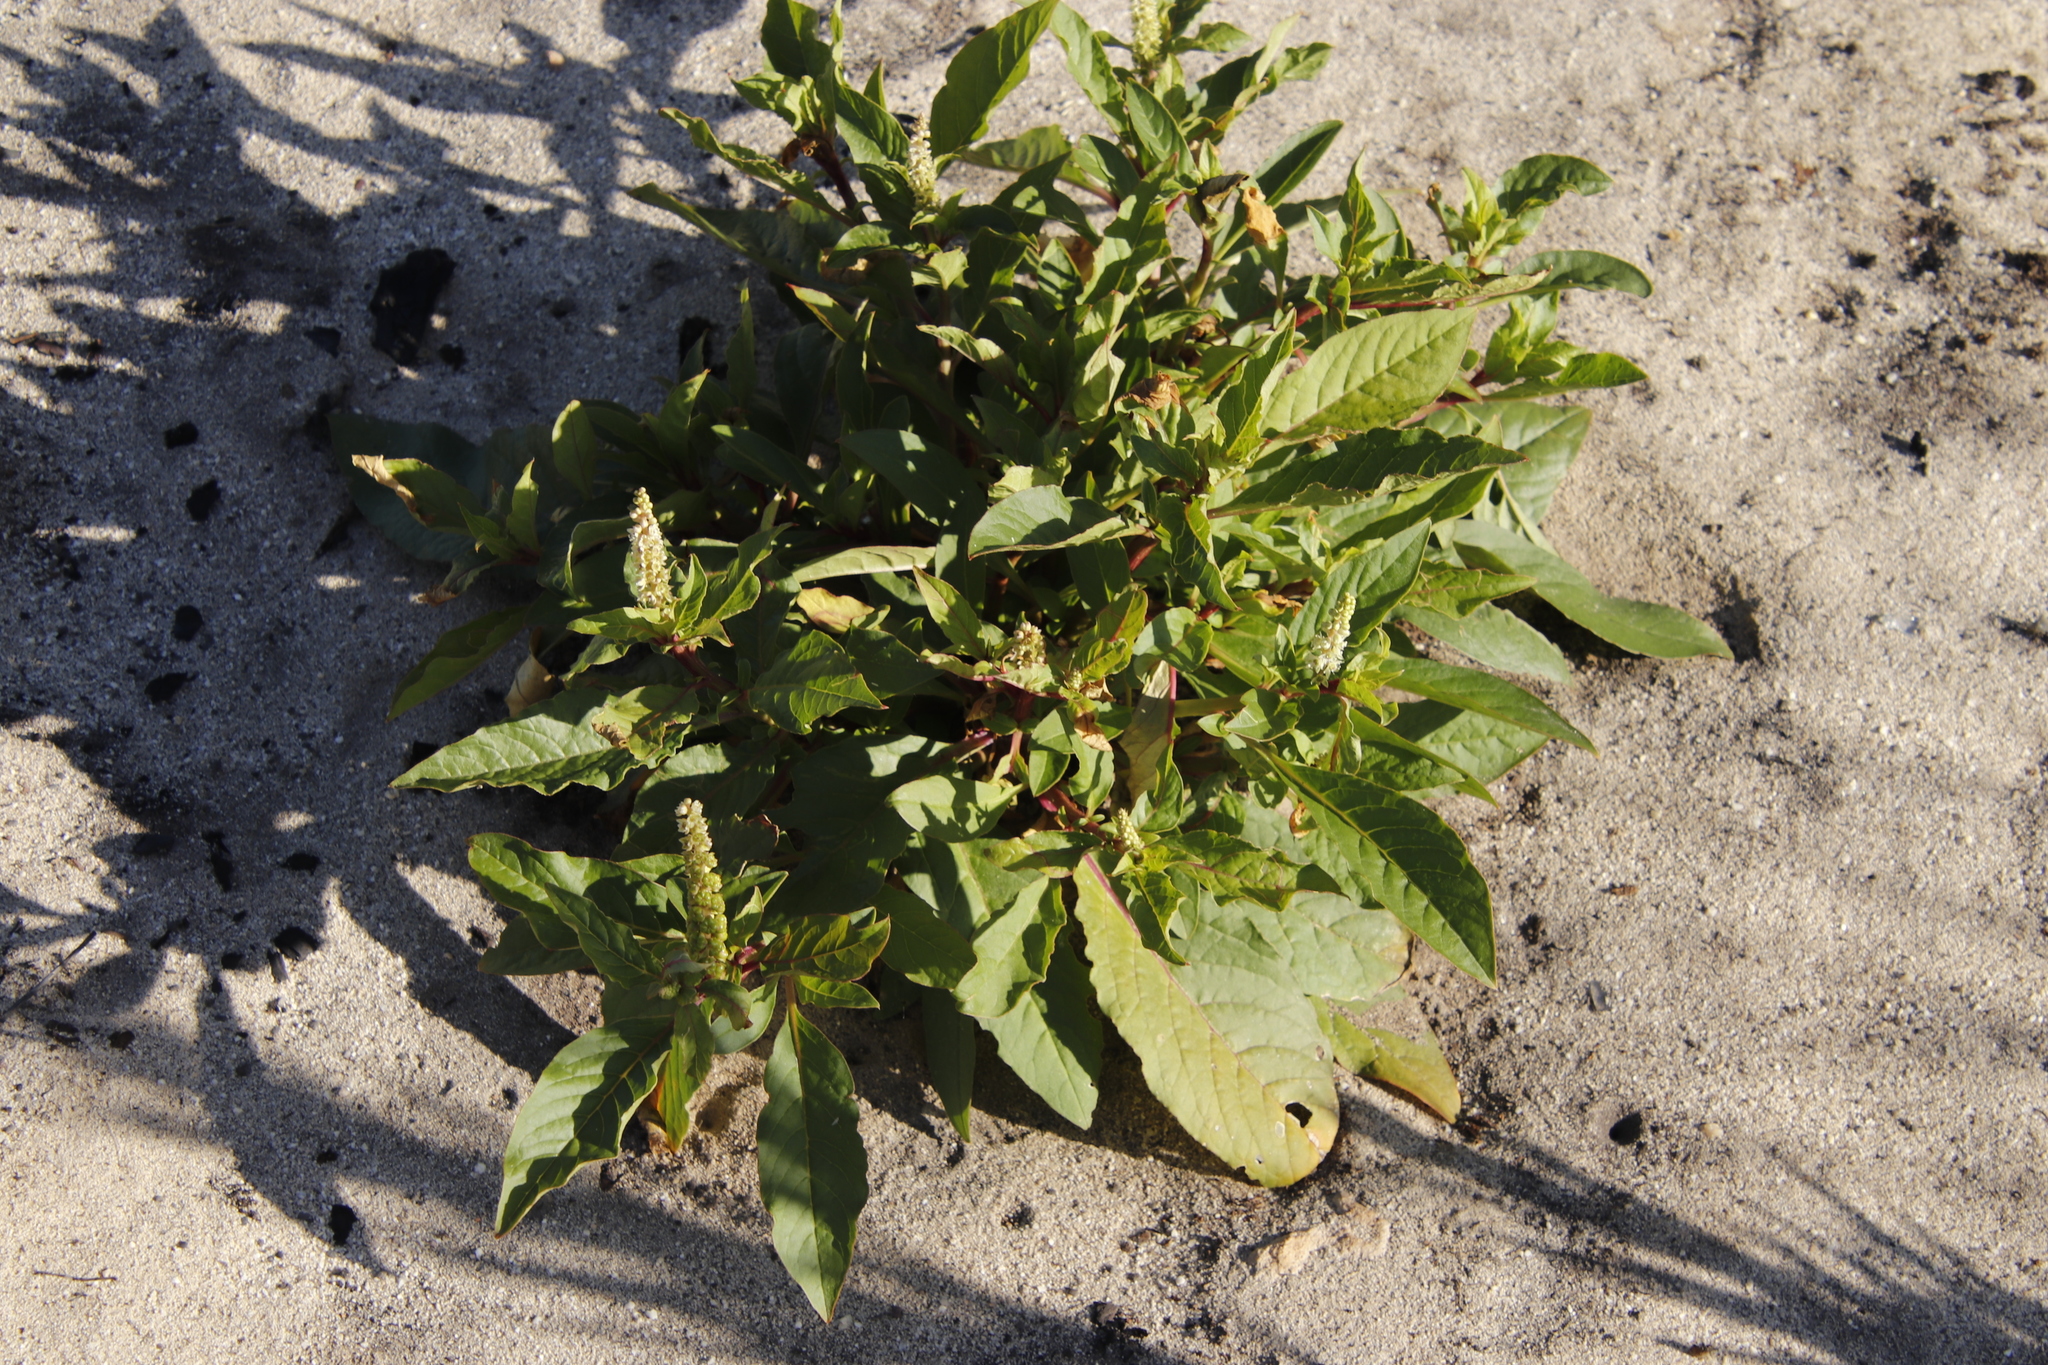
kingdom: Plantae
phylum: Tracheophyta
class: Magnoliopsida
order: Caryophyllales
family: Phytolaccaceae
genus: Phytolacca
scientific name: Phytolacca icosandra
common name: Button pokeweed
